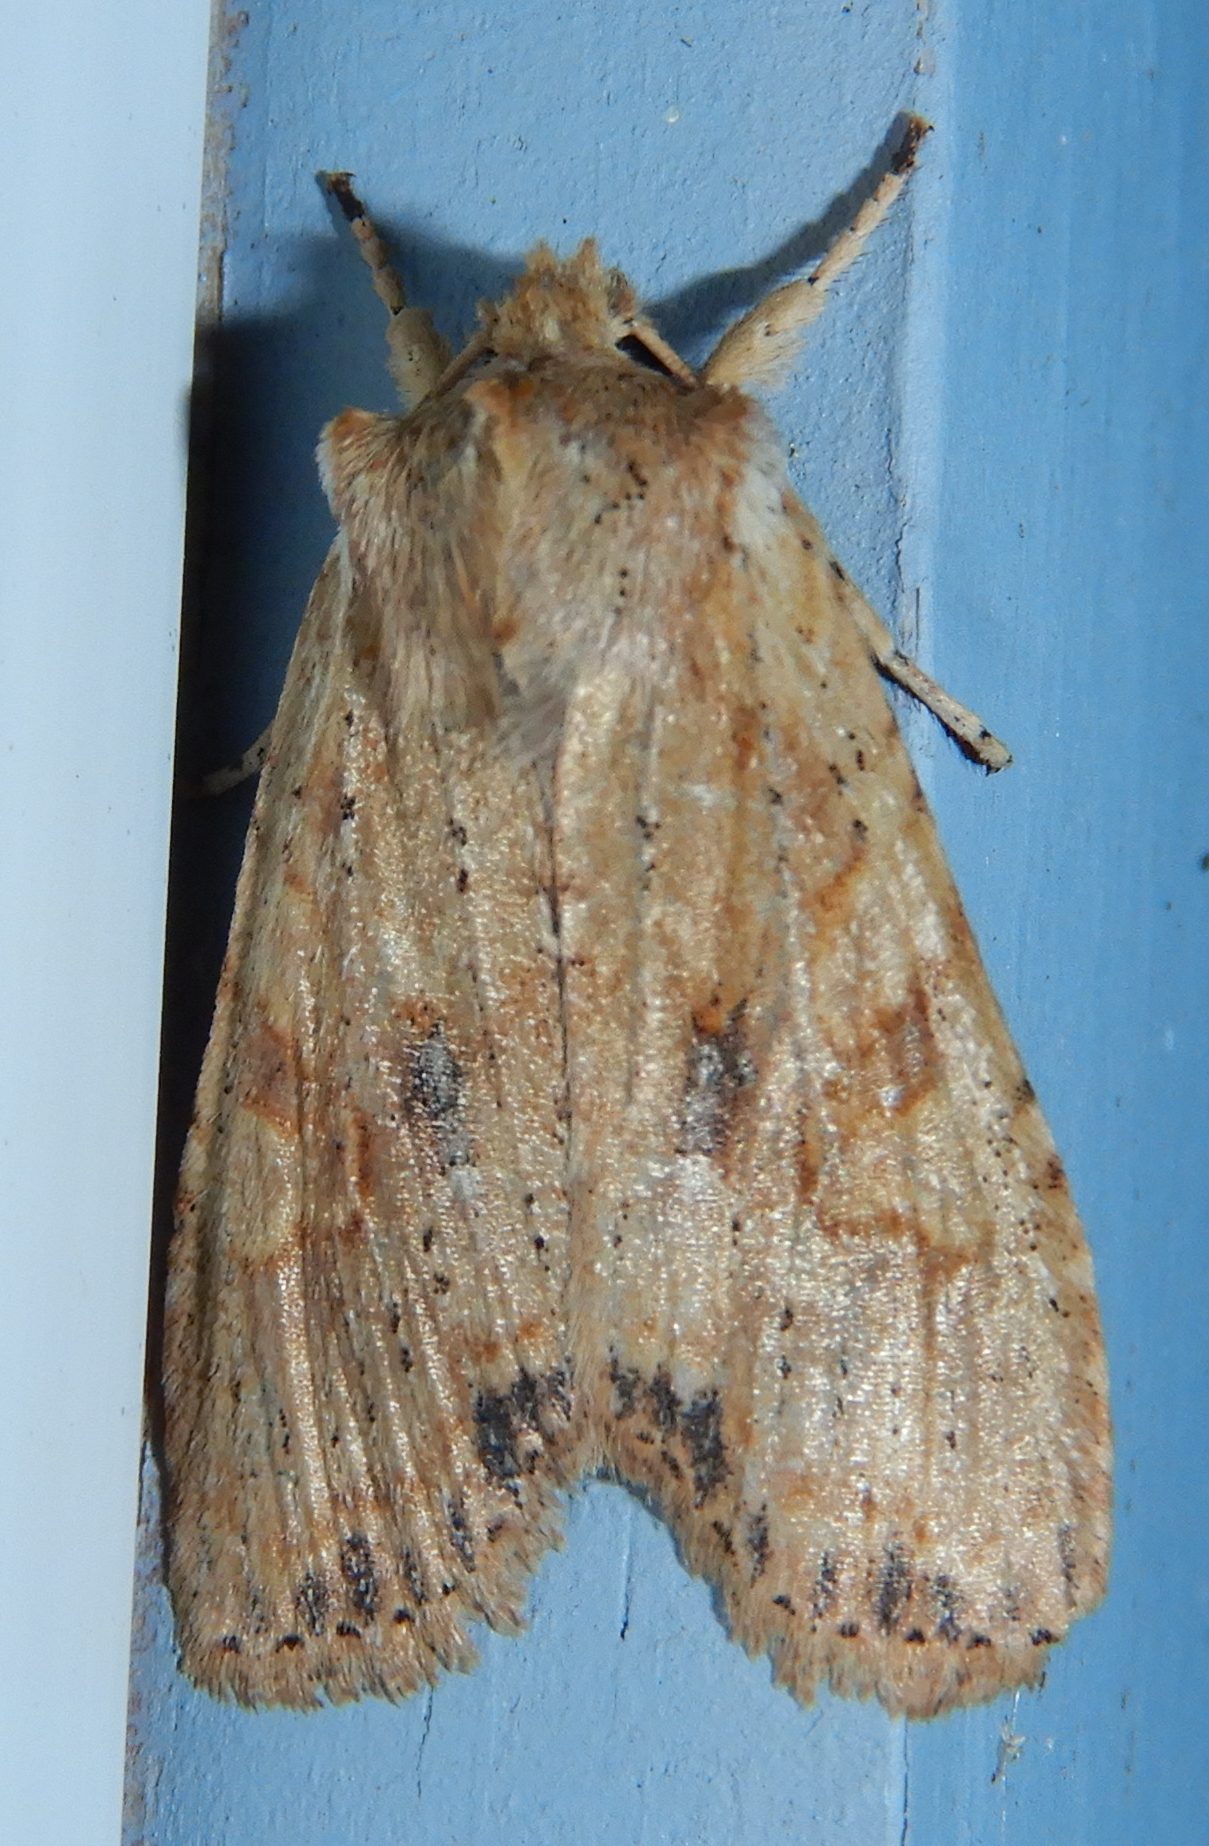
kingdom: Animalia
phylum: Arthropoda
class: Insecta
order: Lepidoptera
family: Noctuidae
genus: Lithophane
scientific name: Lithophane innominata
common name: Nameless pinion moth
